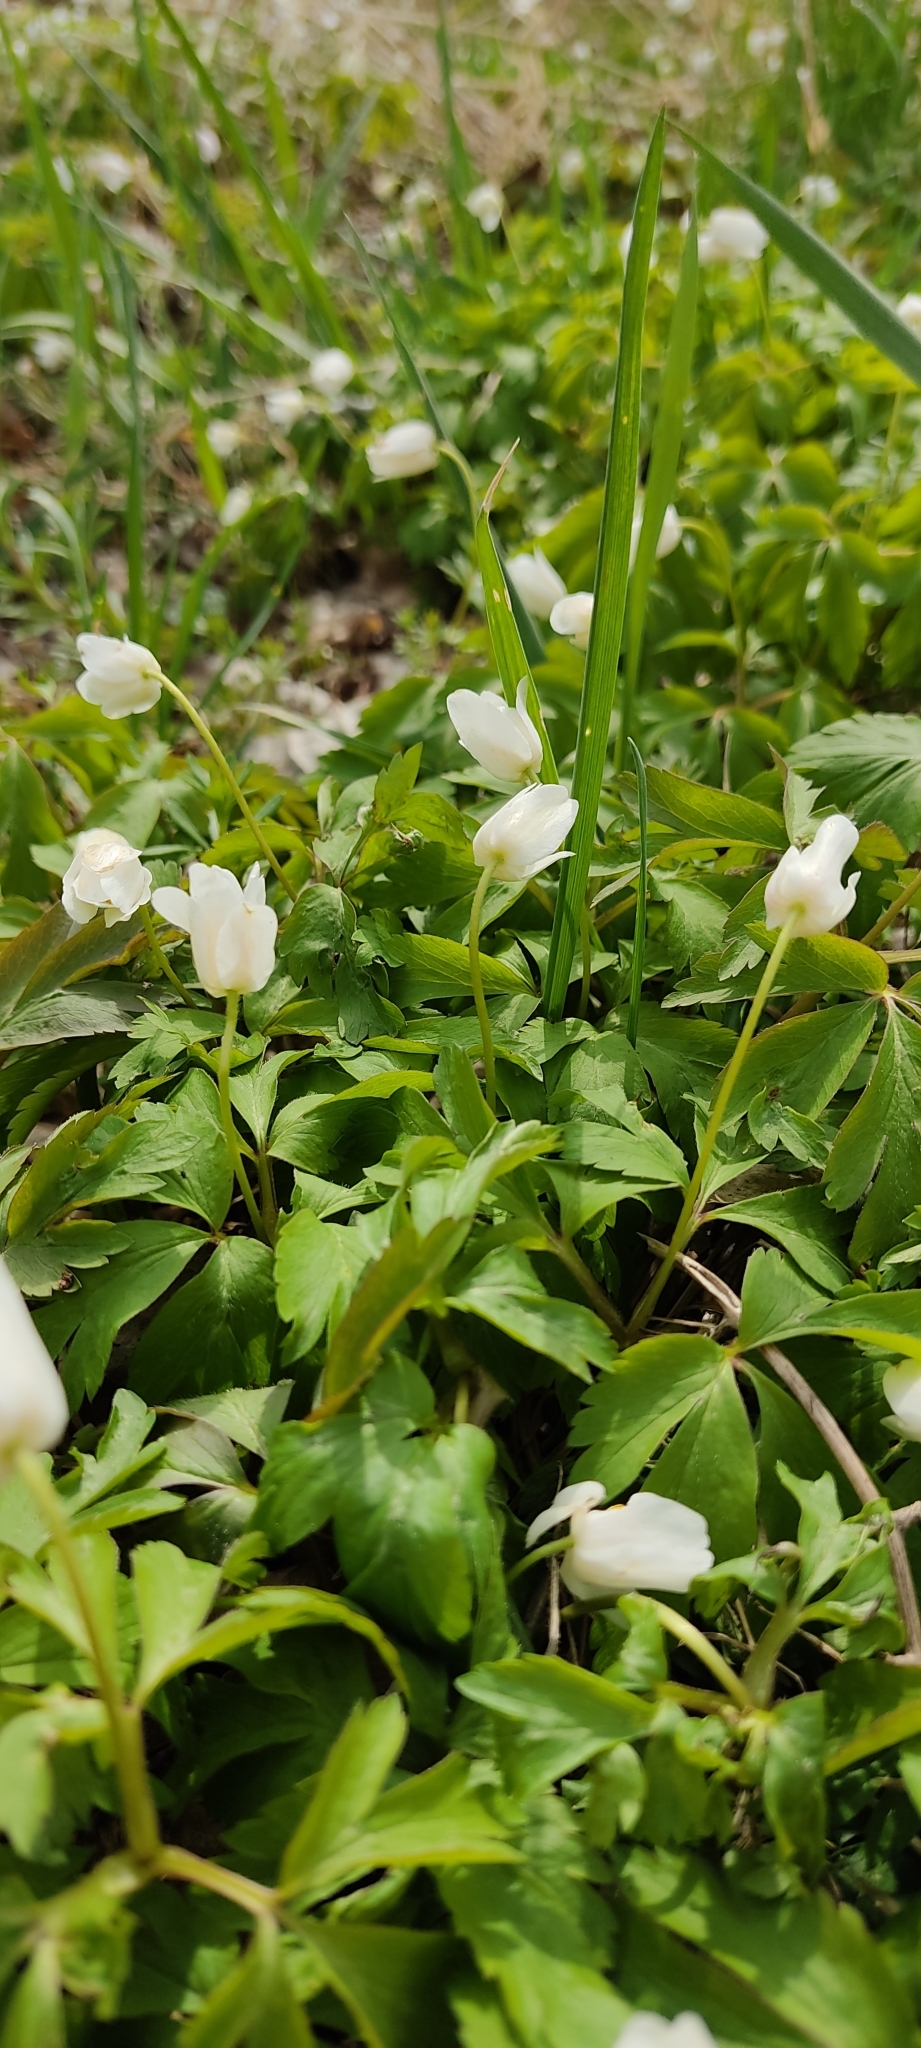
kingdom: Plantae
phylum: Tracheophyta
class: Magnoliopsida
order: Ranunculales
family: Ranunculaceae
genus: Anemone
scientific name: Anemone nemorosa
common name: Wood anemone
